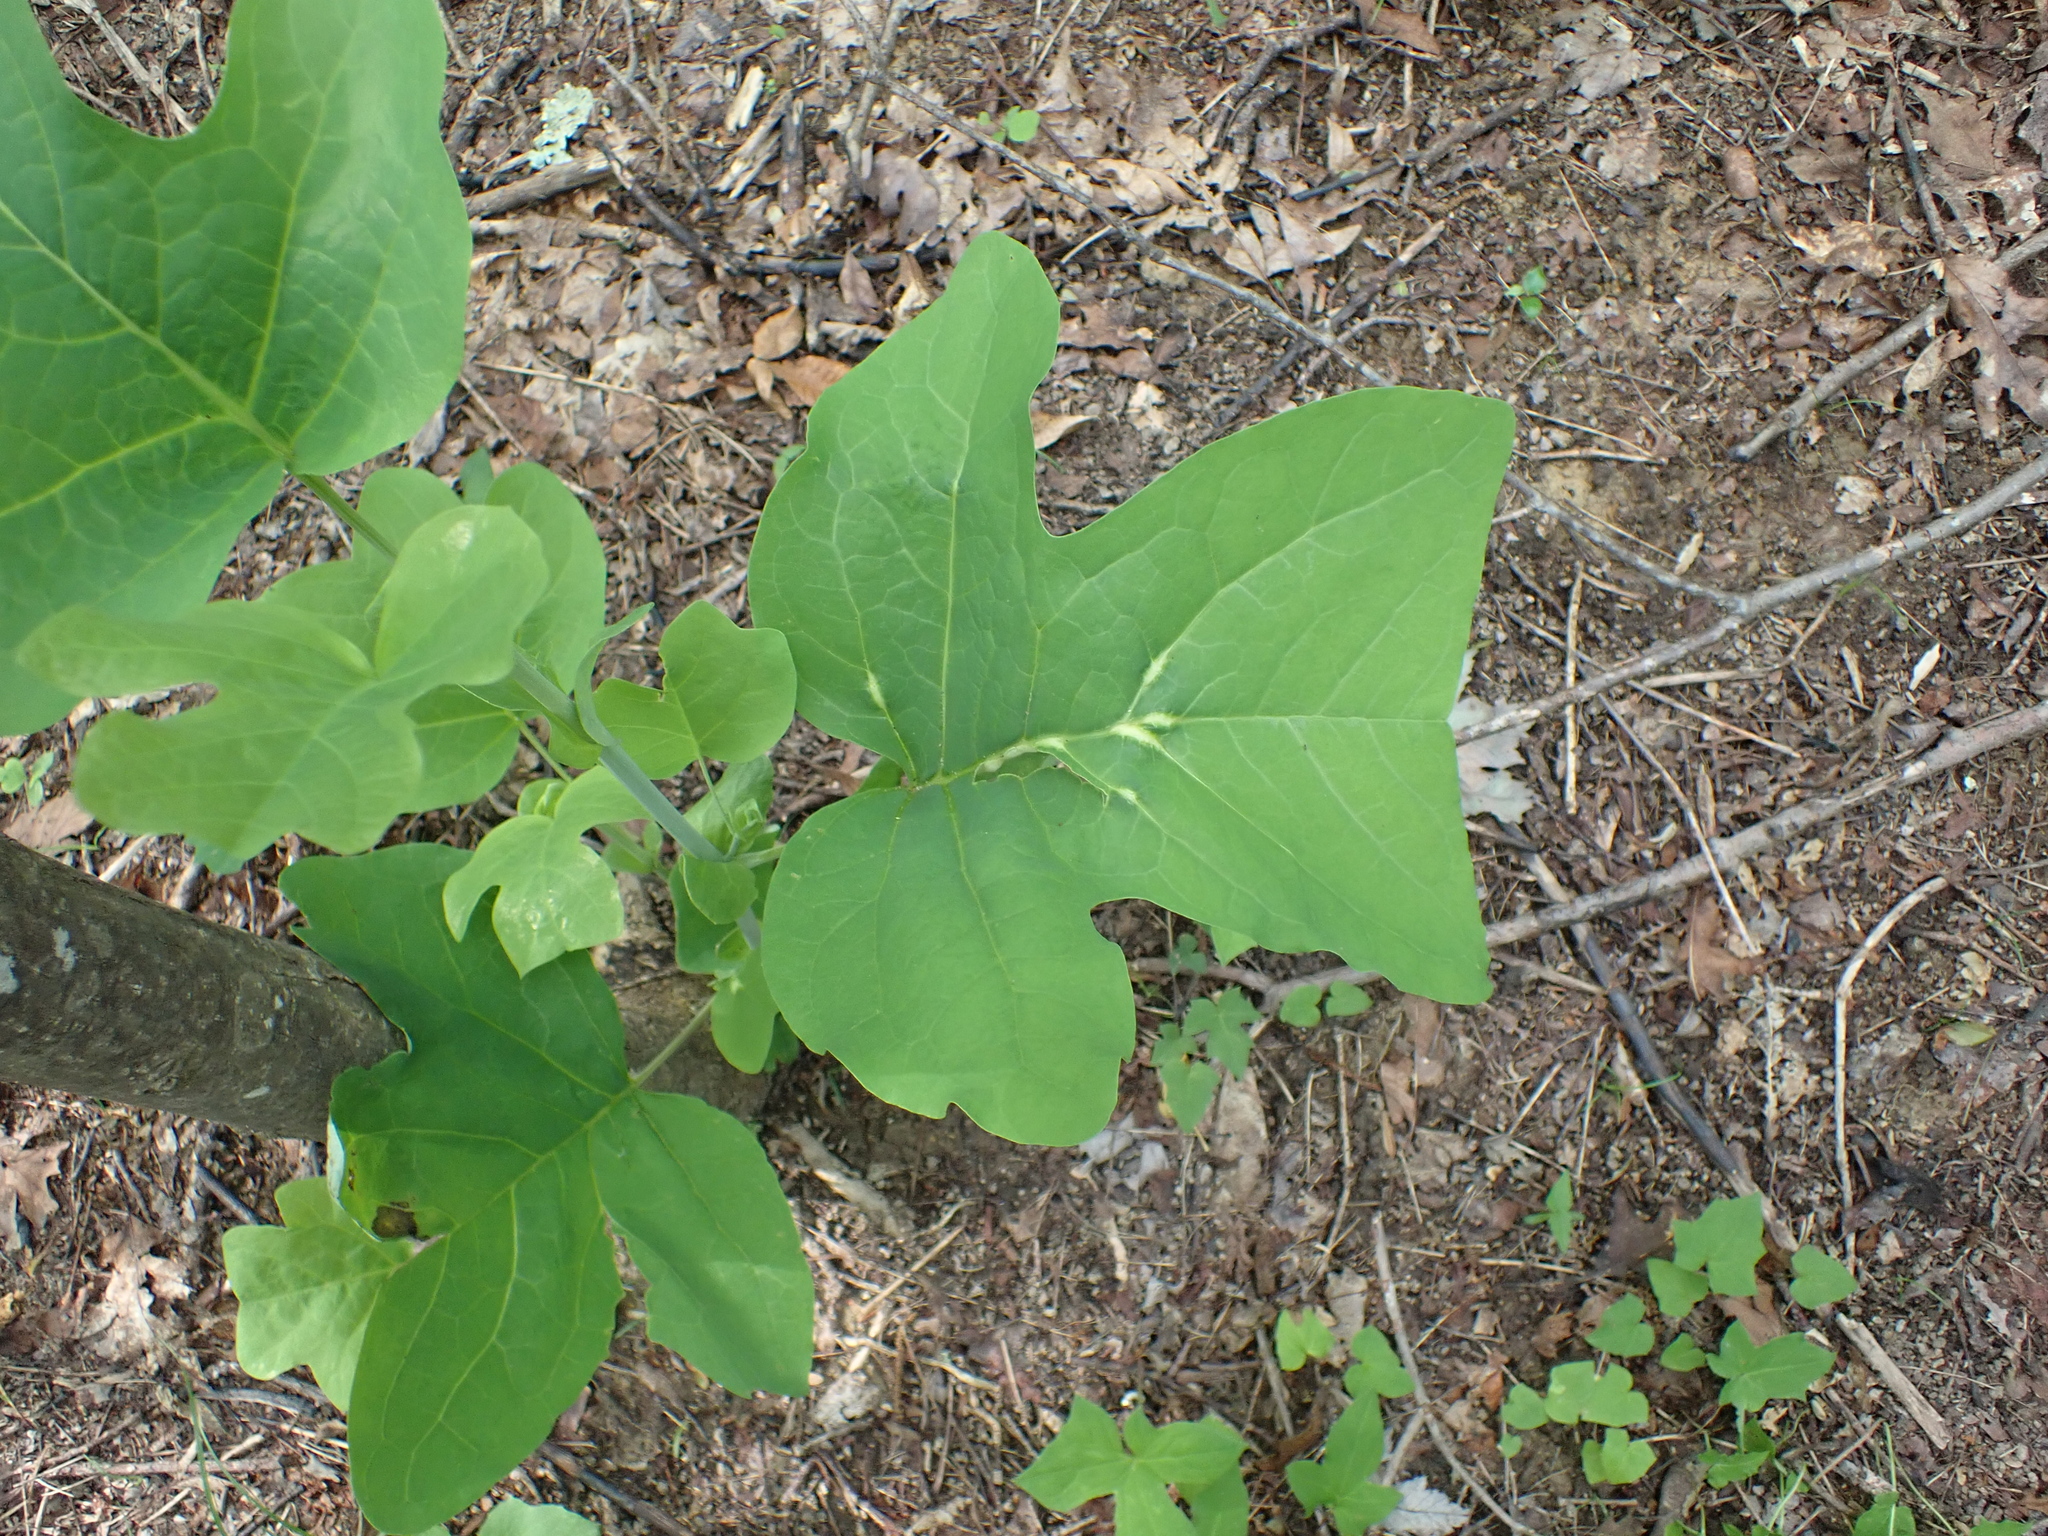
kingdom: Plantae
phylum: Tracheophyta
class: Magnoliopsida
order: Magnoliales
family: Magnoliaceae
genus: Liriodendron
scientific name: Liriodendron tulipifera
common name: Tulip tree
